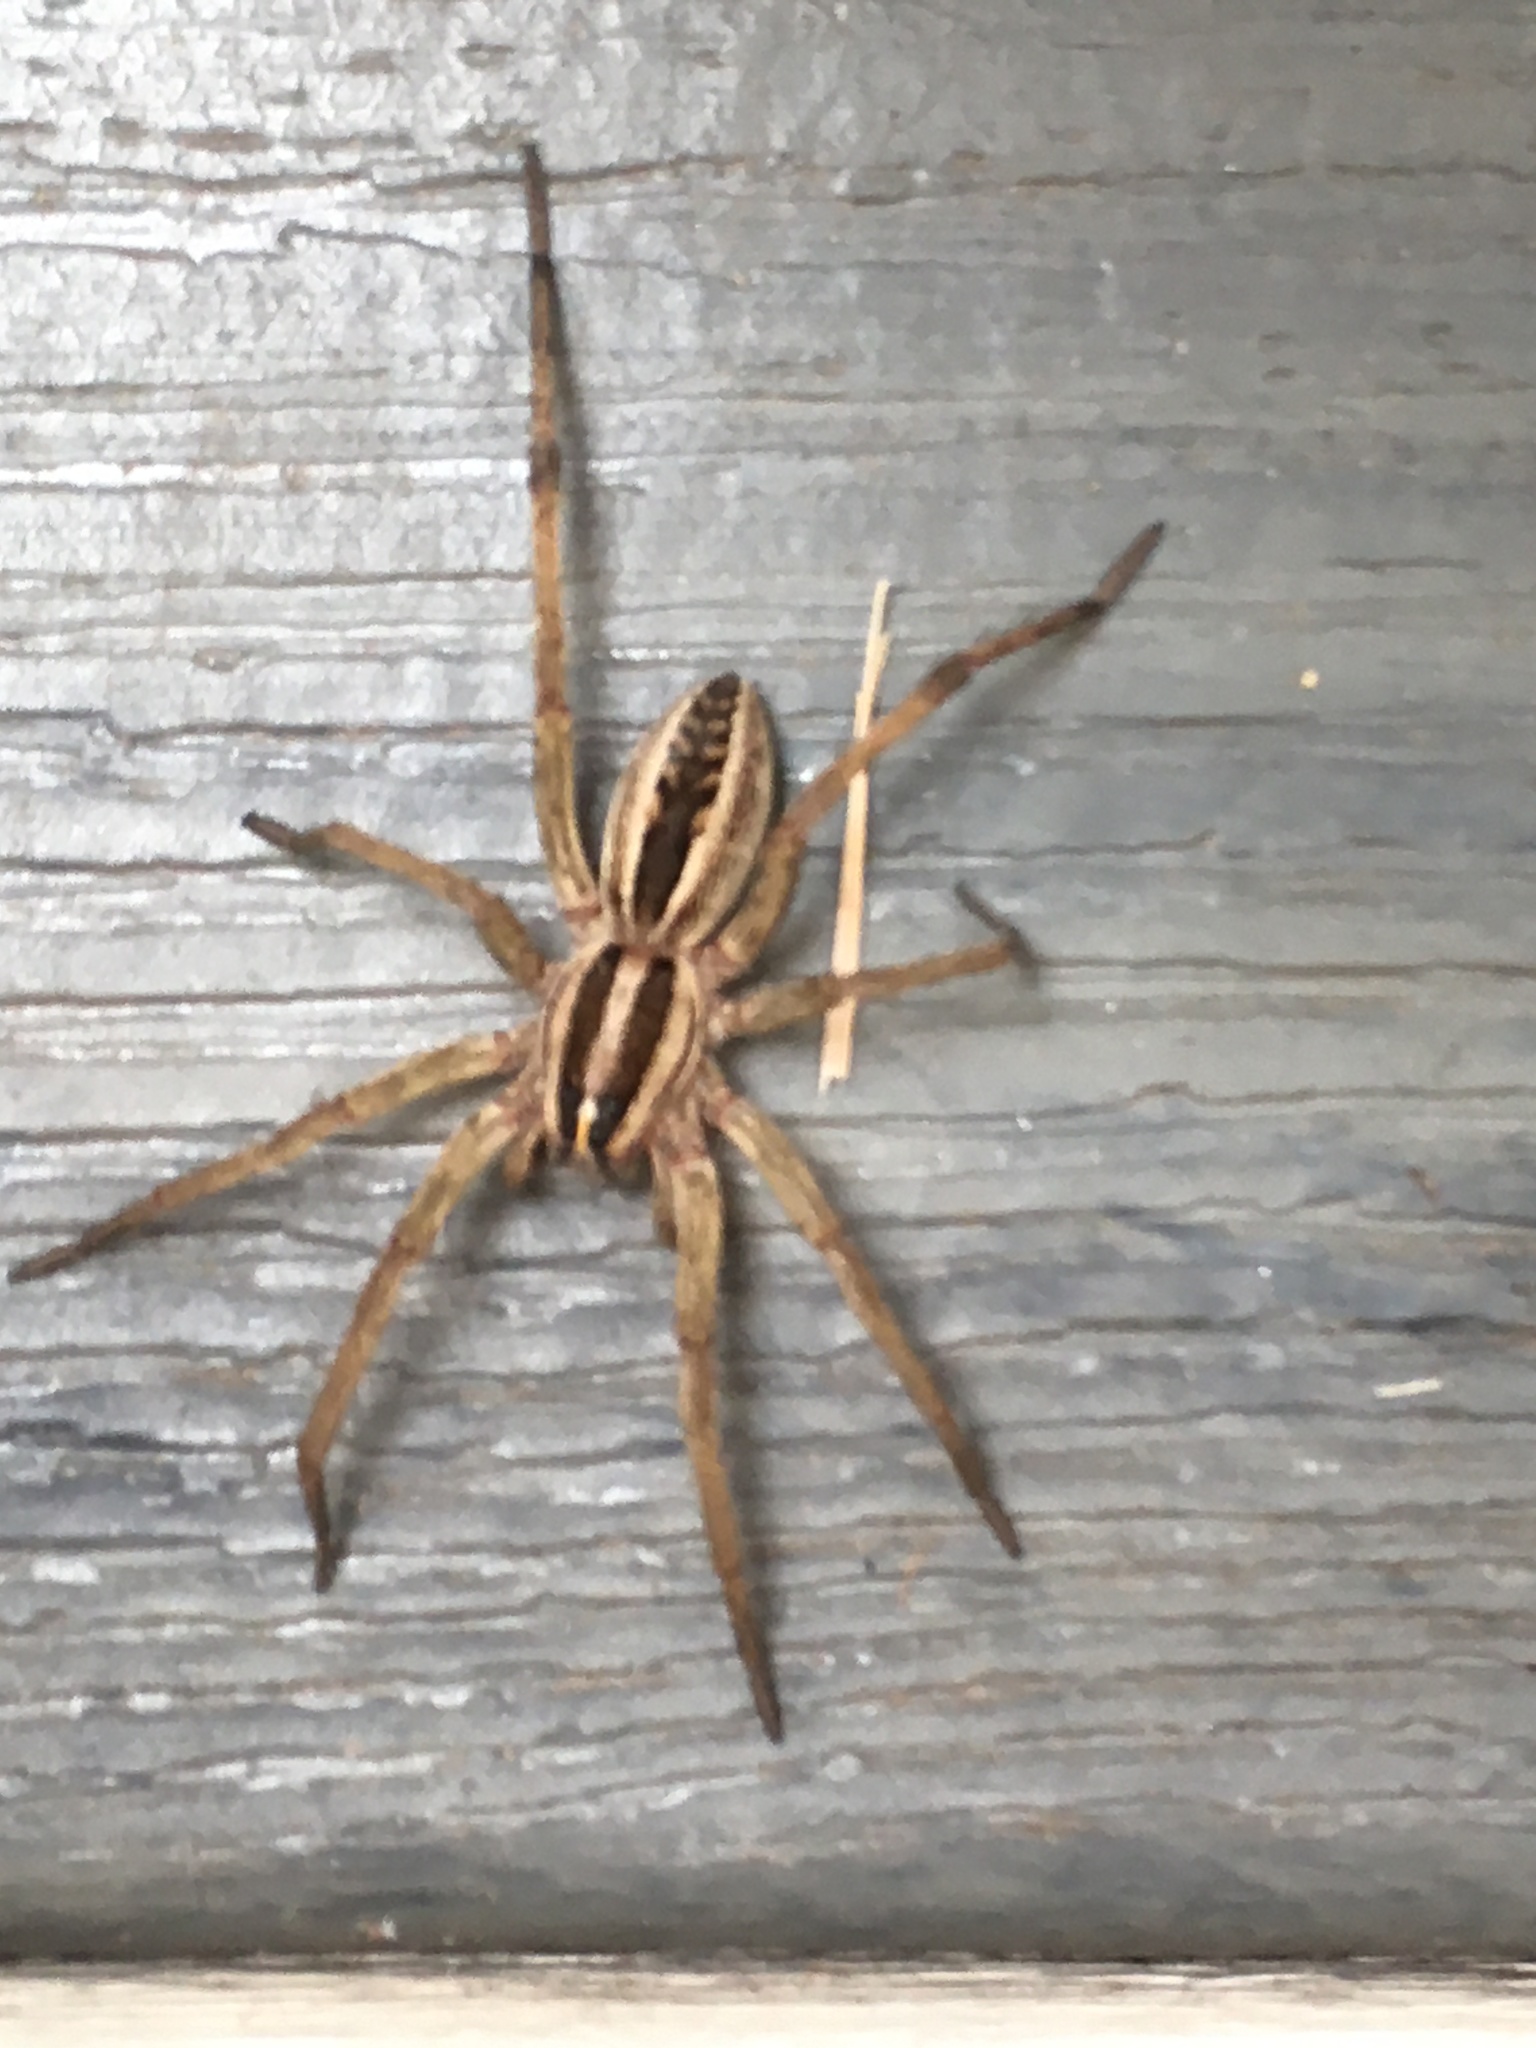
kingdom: Animalia
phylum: Arthropoda
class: Arachnida
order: Araneae
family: Lycosidae
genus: Rabidosa
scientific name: Rabidosa rabida
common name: Rabid wolf spider
